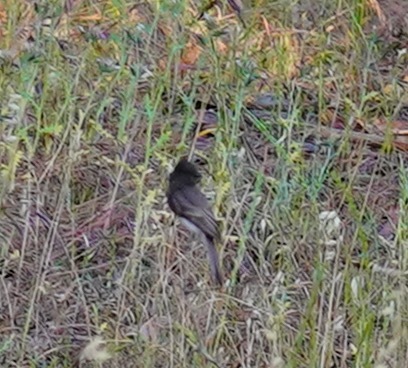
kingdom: Animalia
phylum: Chordata
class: Aves
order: Passeriformes
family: Tyrannidae
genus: Sayornis
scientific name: Sayornis nigricans
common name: Black phoebe
